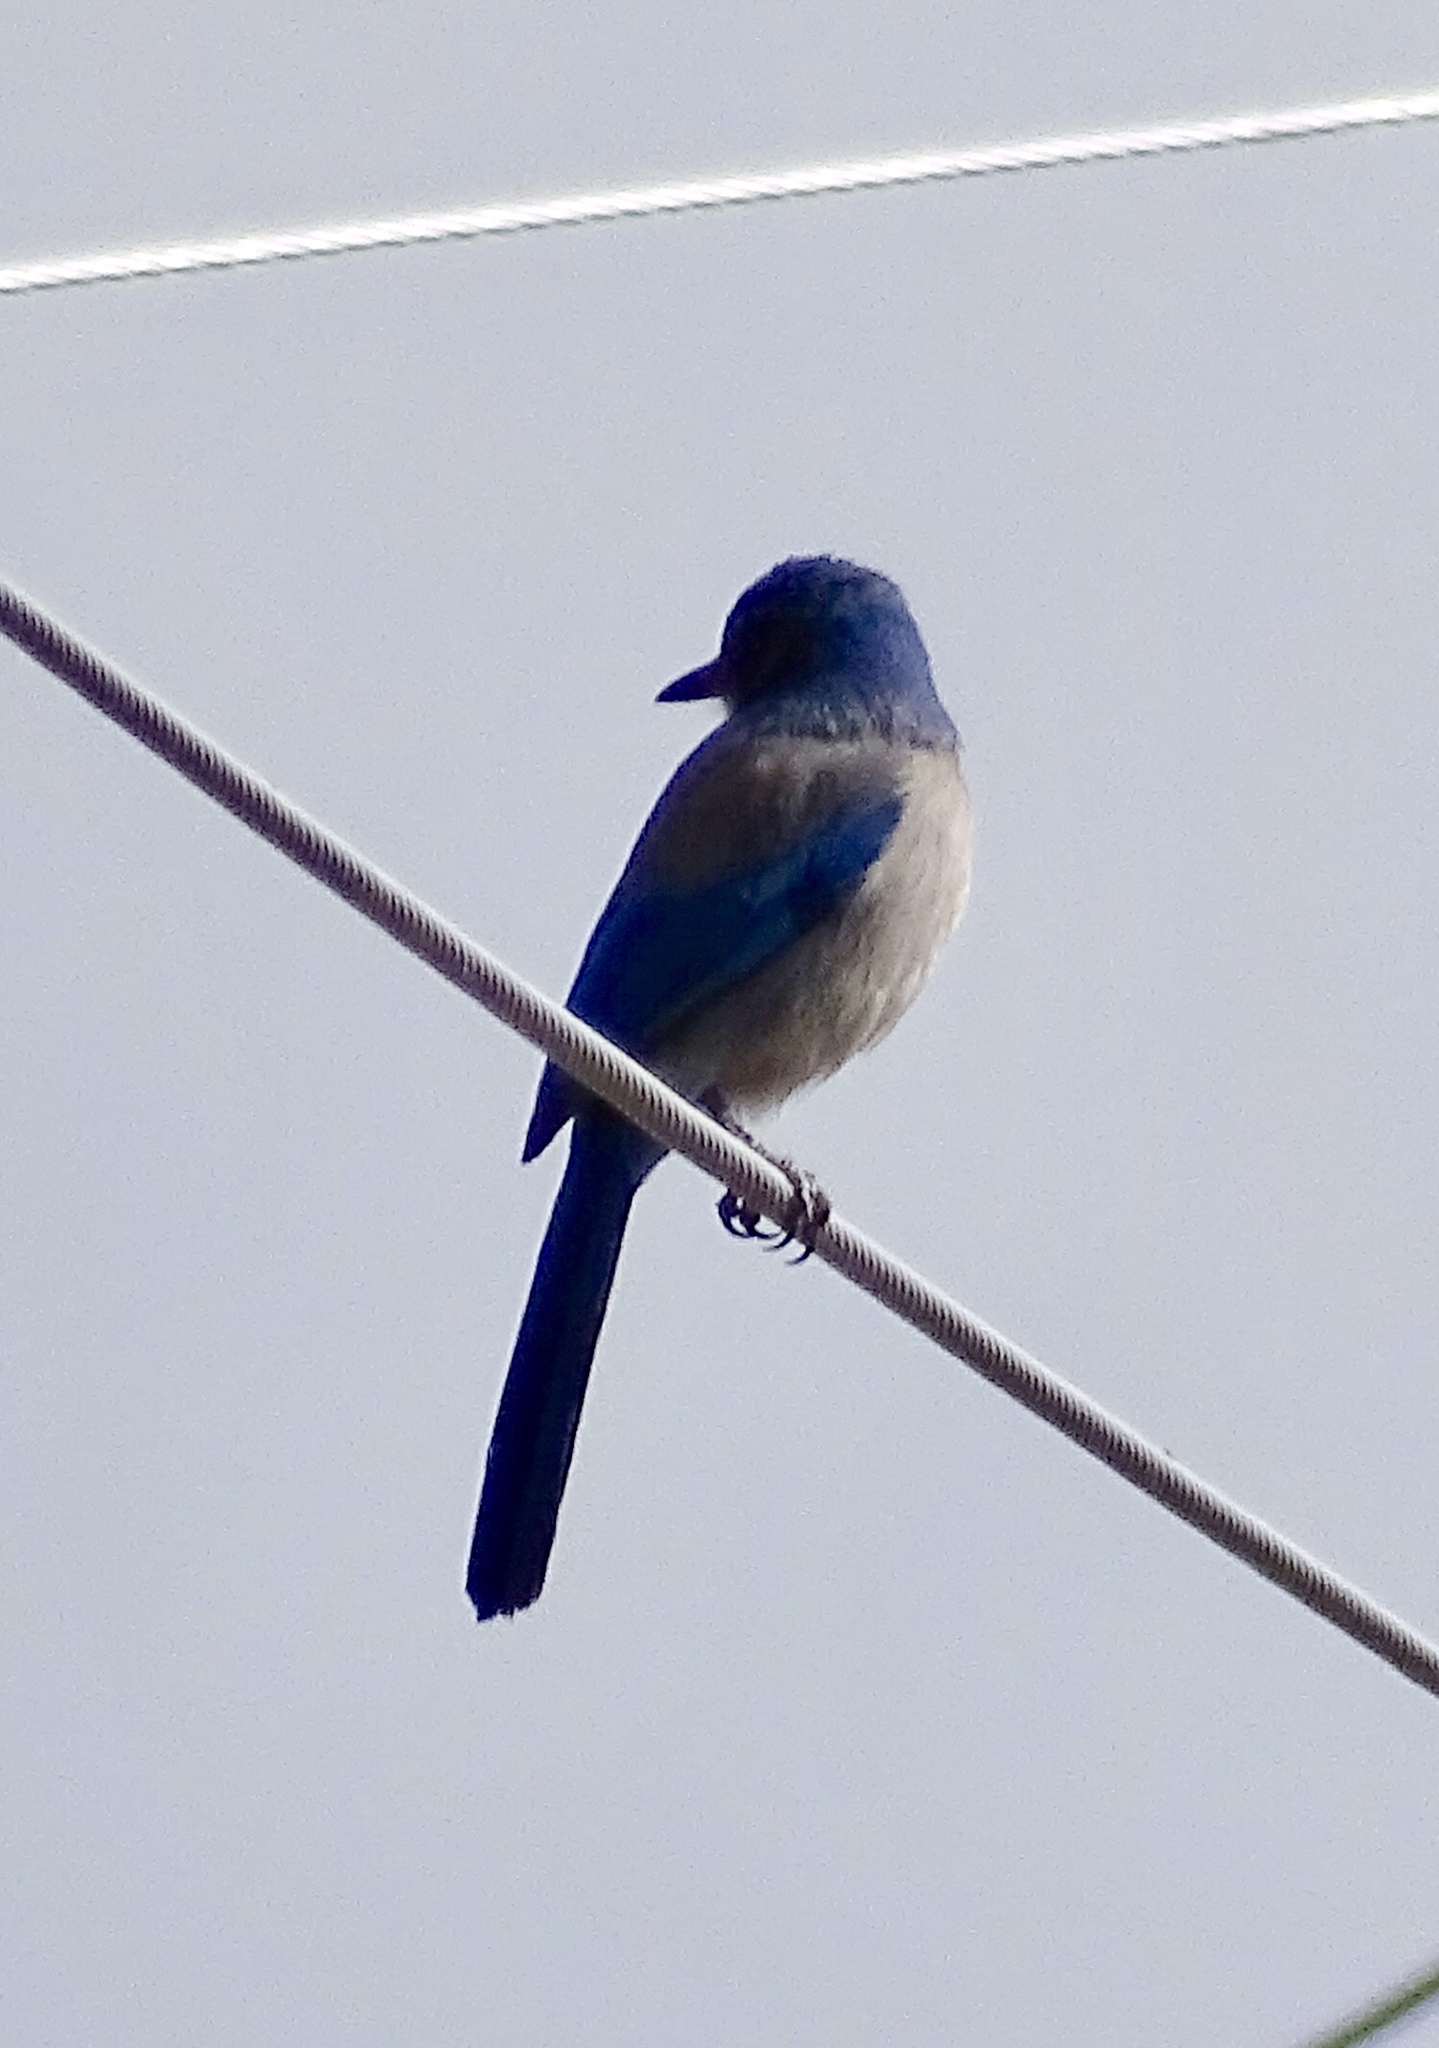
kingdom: Animalia
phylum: Chordata
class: Aves
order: Passeriformes
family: Corvidae
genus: Aphelocoma
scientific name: Aphelocoma woodhouseii
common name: Woodhouse's scrub-jay
